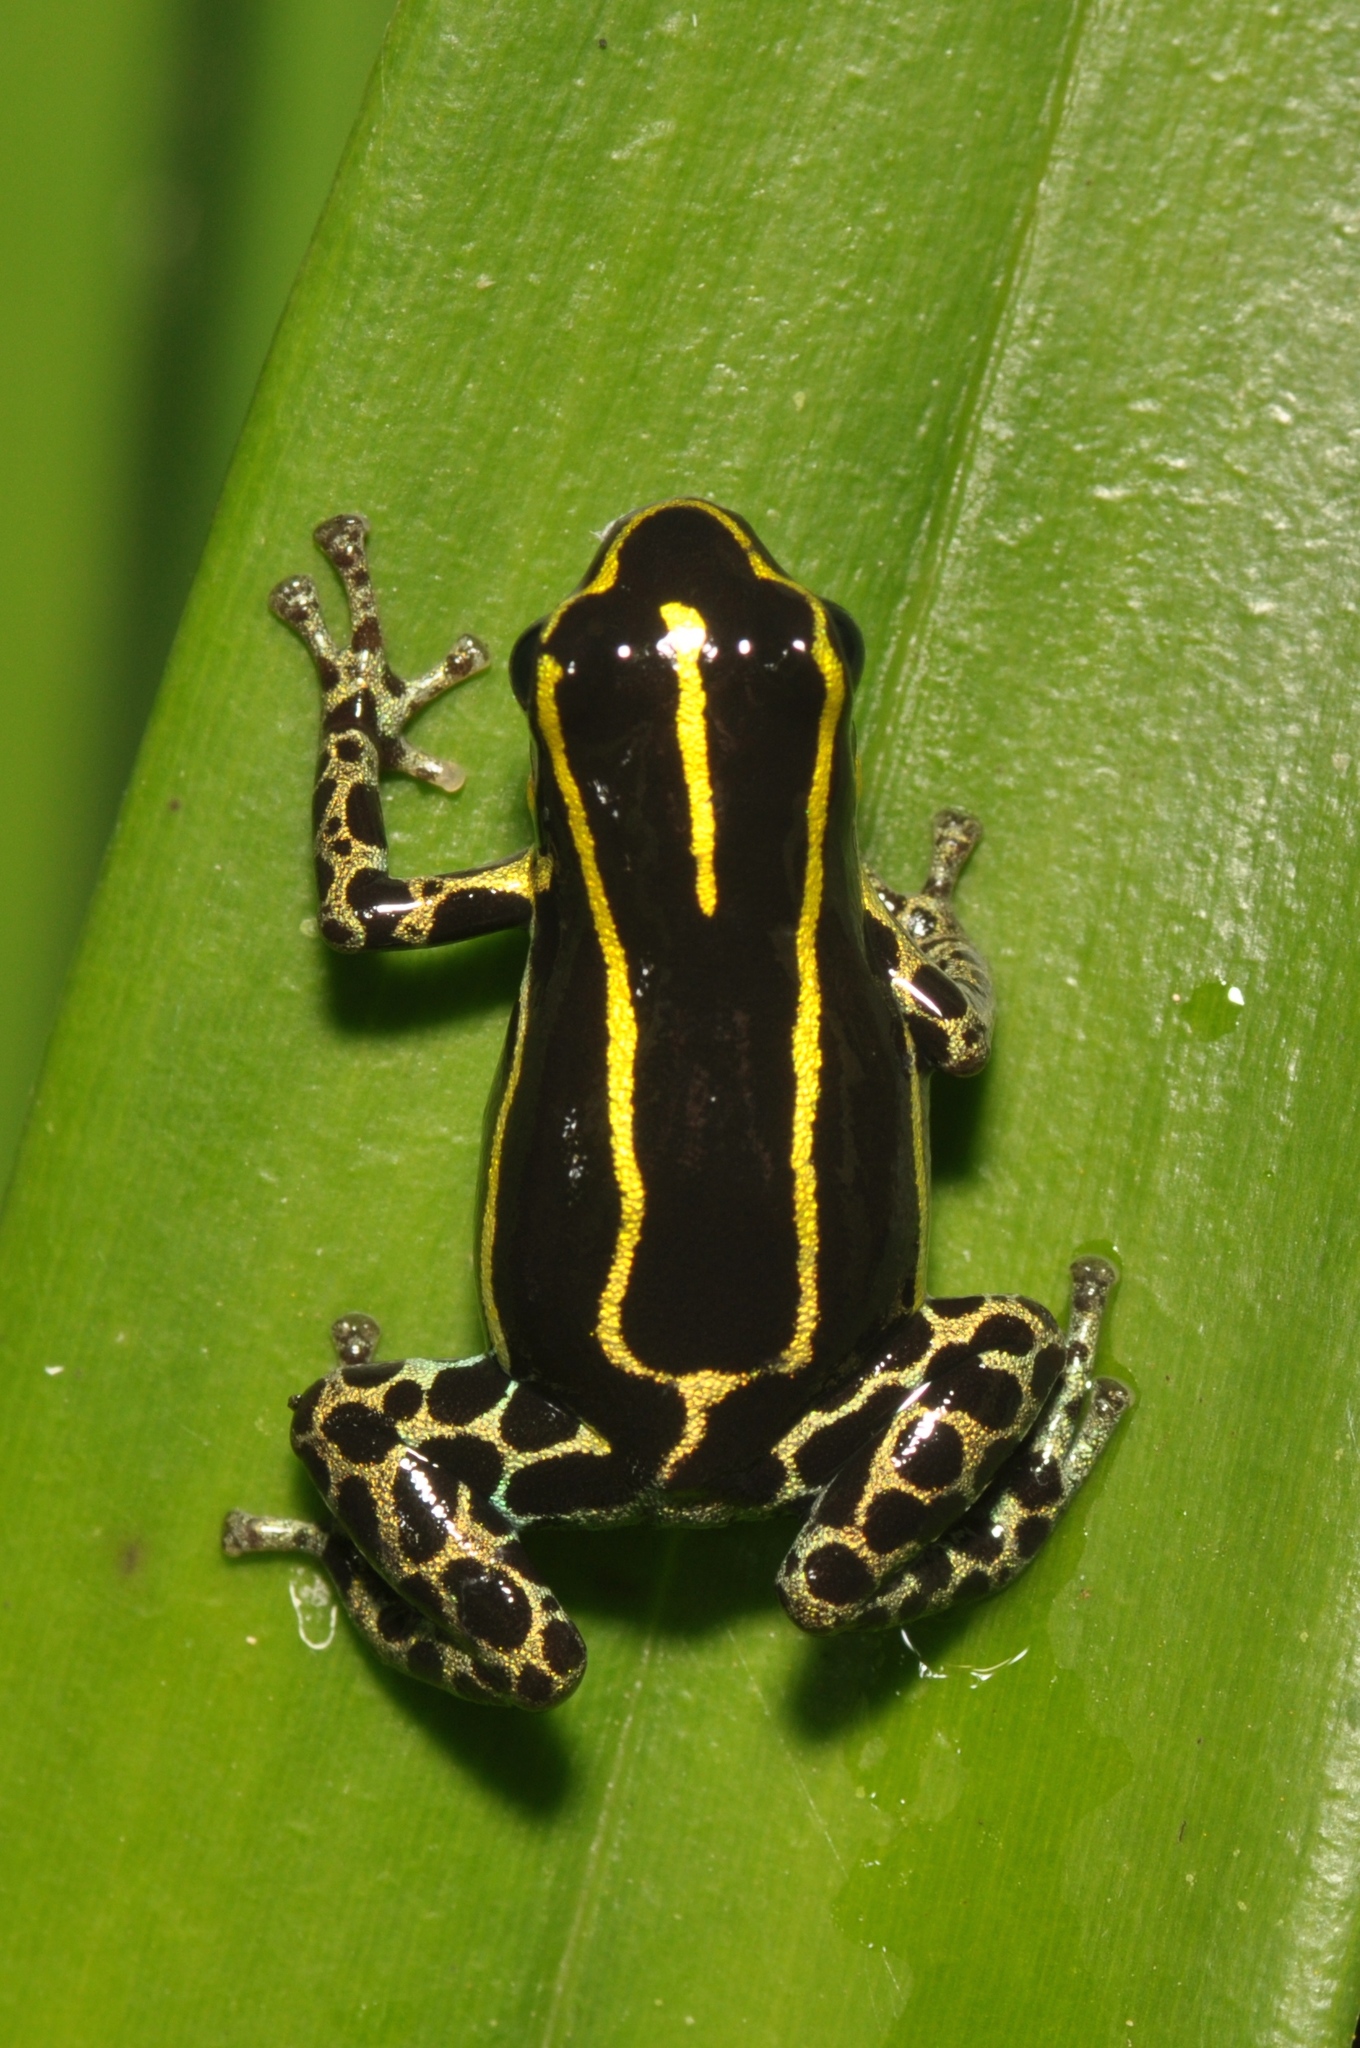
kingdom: Animalia
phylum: Chordata
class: Amphibia
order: Anura
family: Dendrobatidae
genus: Ranitomeya
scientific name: Ranitomeya variabilis
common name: Variable poison frog
